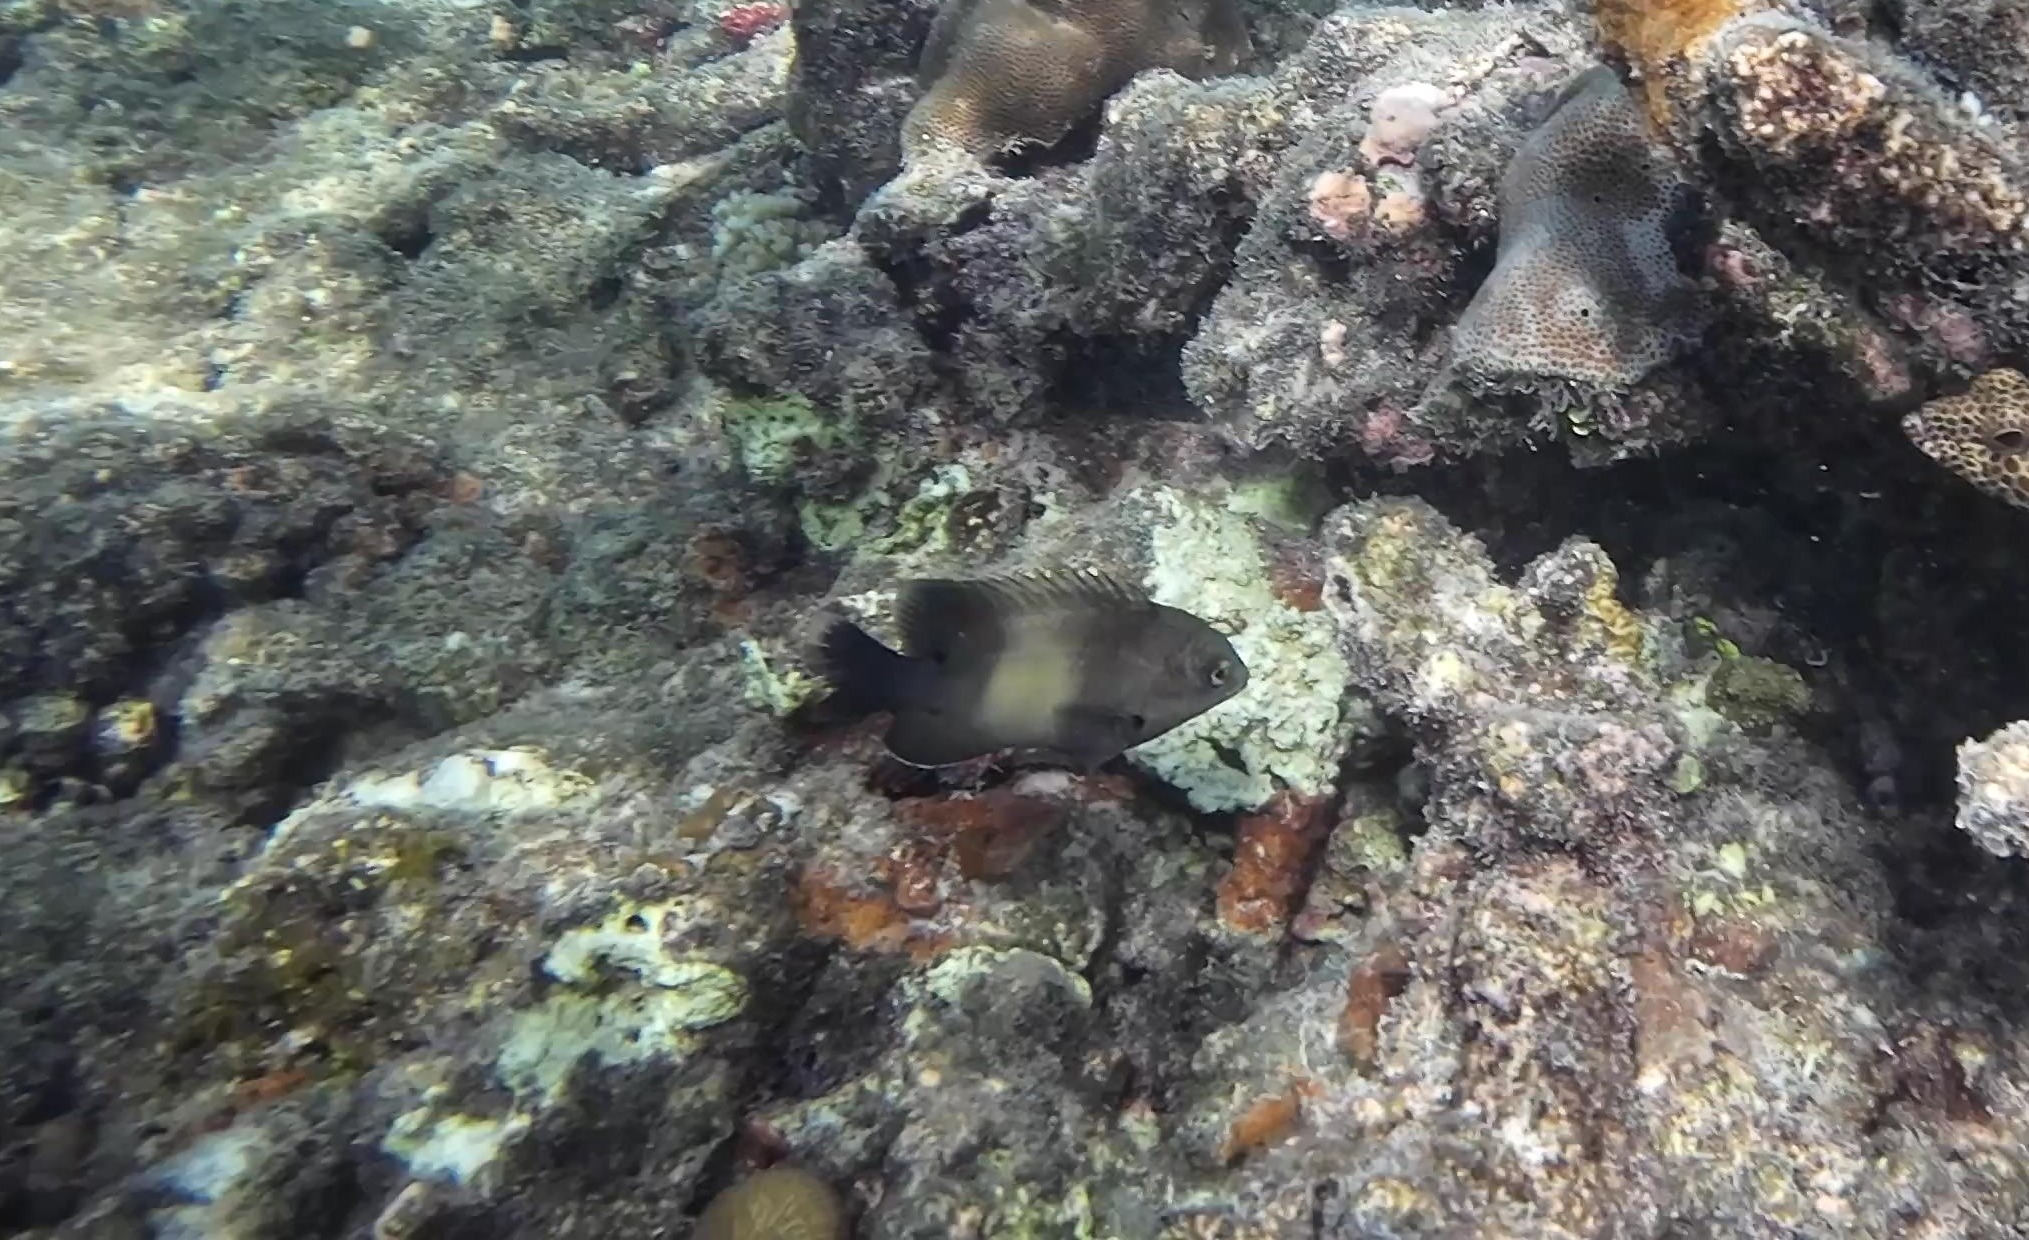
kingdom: Animalia
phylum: Chordata
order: Perciformes
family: Pomacentridae
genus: Stegastes
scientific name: Stegastes nigricans
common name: Dusky gregory
